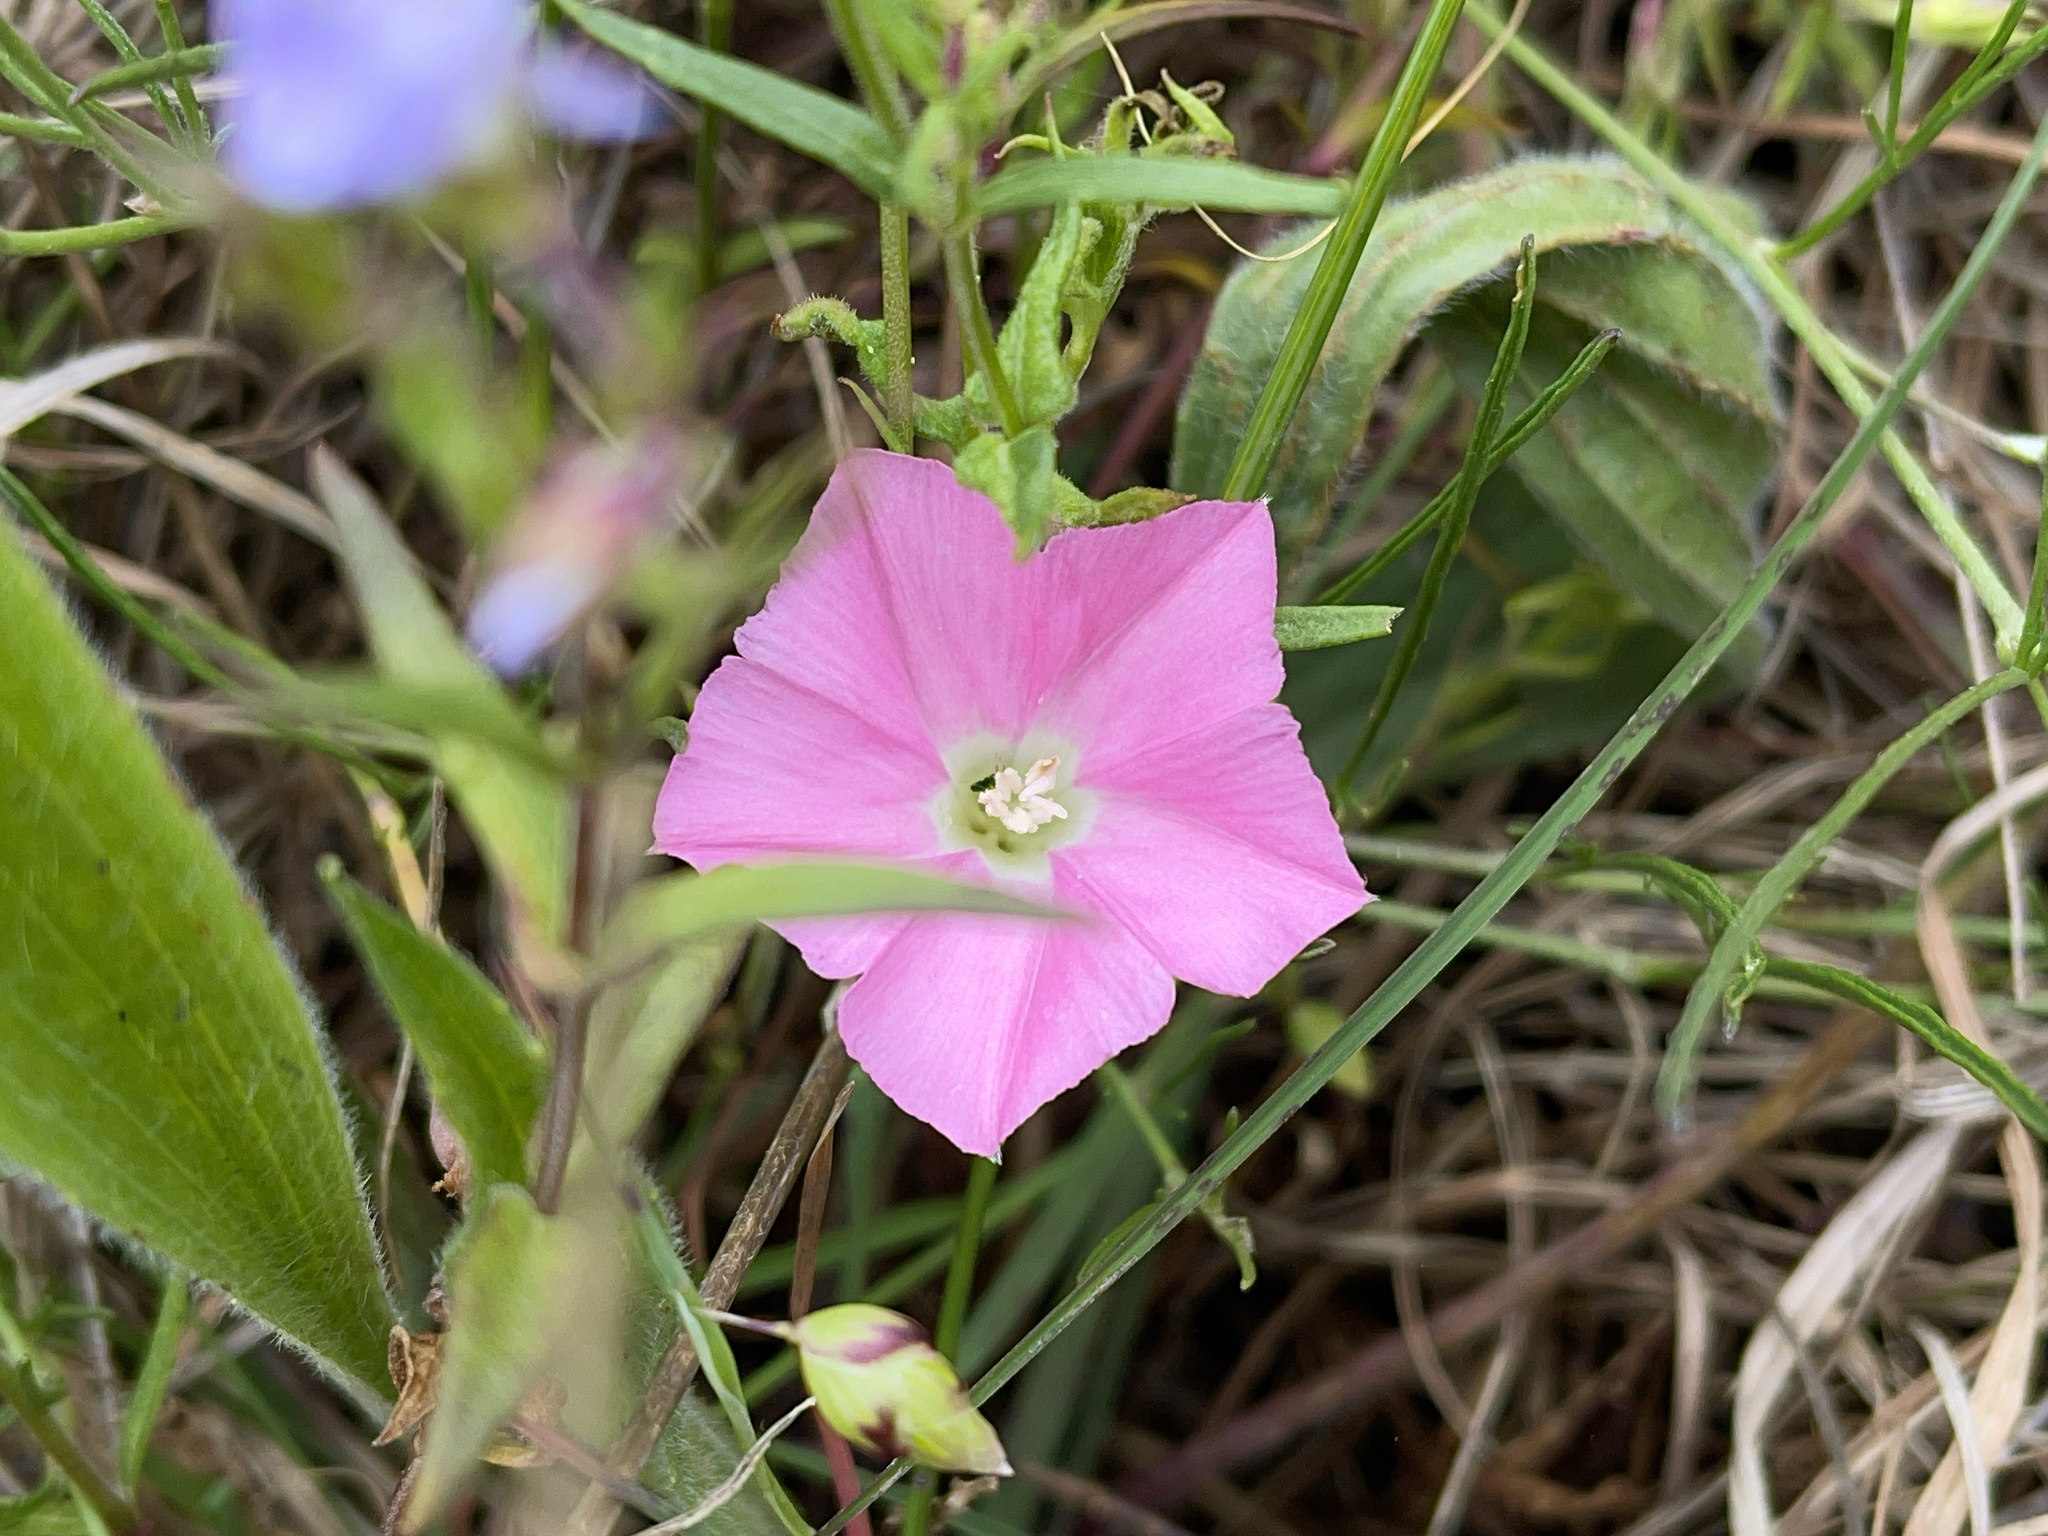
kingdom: Plantae
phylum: Tracheophyta
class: Magnoliopsida
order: Solanales
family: Convolvulaceae
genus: Convolvulus
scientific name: Convolvulus angustissimus
